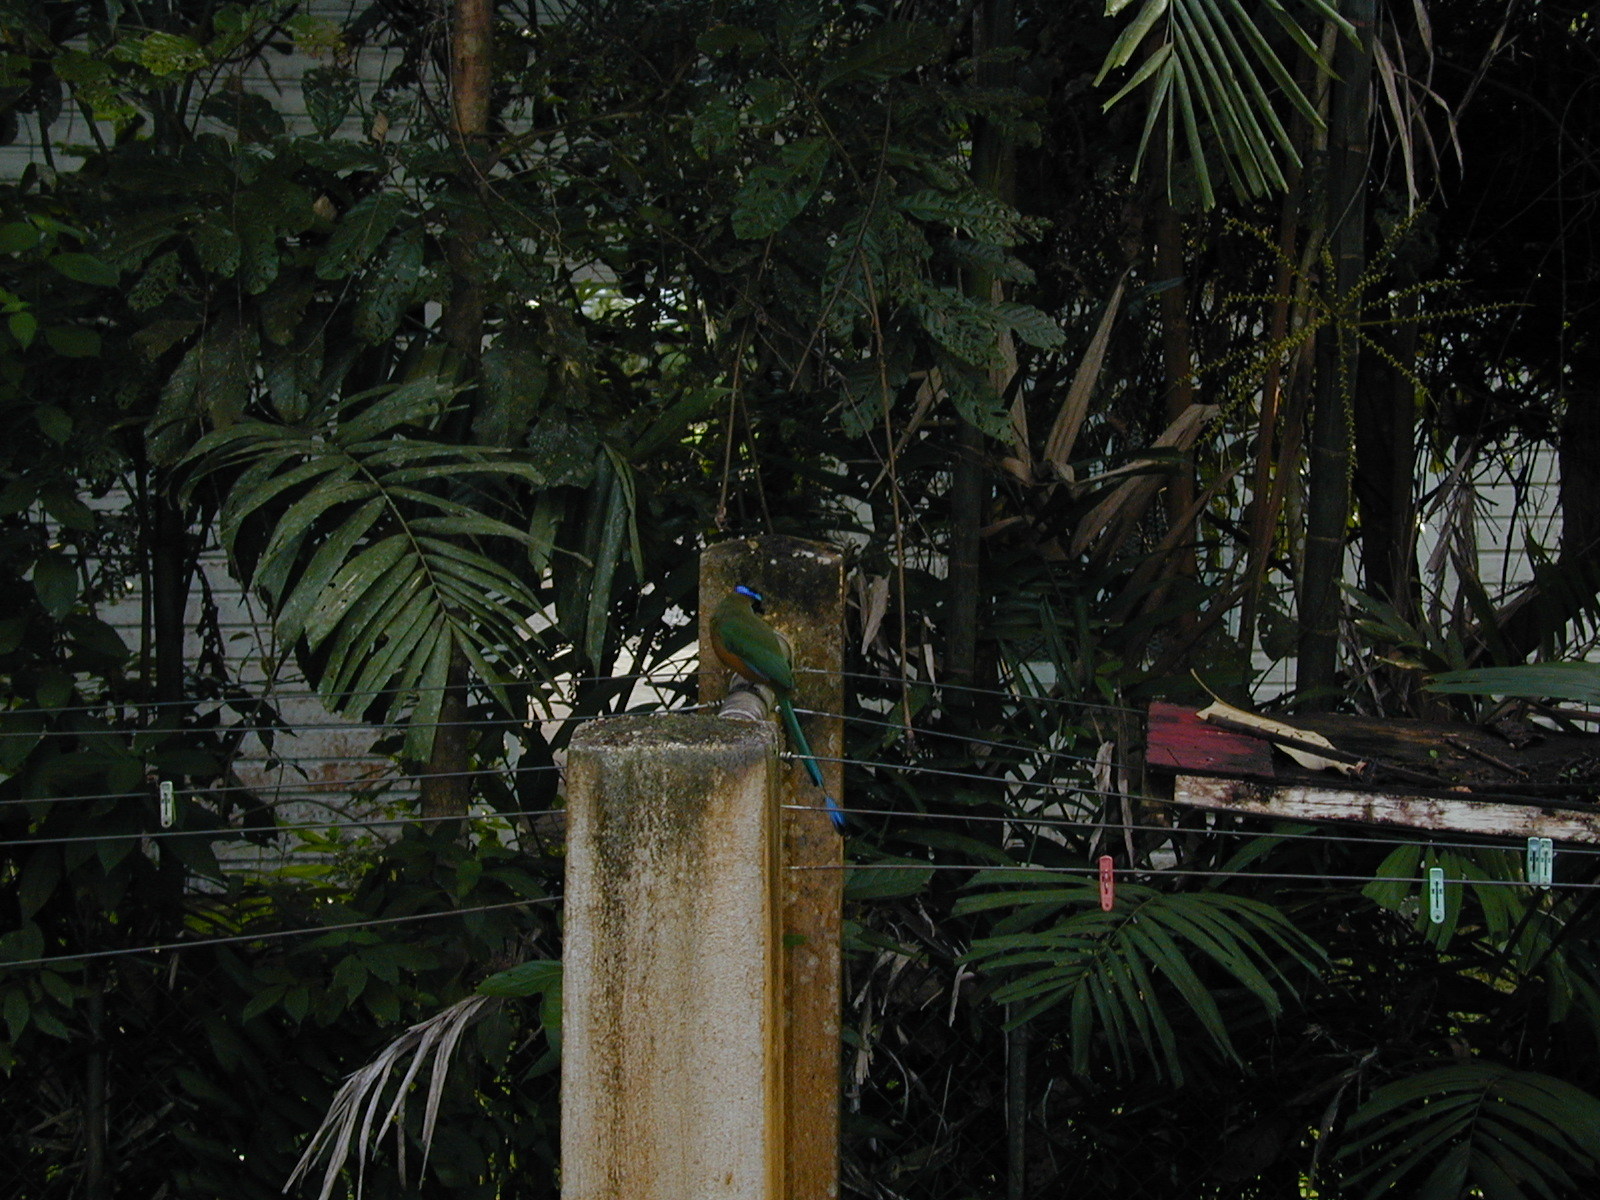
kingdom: Animalia
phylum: Chordata
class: Aves
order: Coraciiformes
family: Momotidae
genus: Momotus
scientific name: Momotus subrufescens
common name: Whooping motmot
